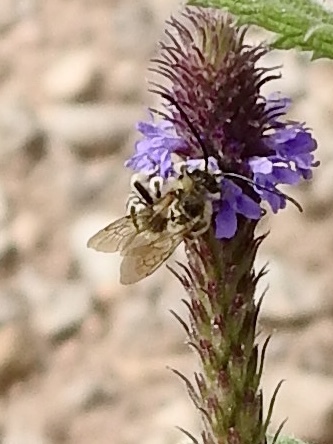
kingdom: Animalia
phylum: Arthropoda
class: Insecta
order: Hymenoptera
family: Apidae
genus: Apidae
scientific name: Apidae
